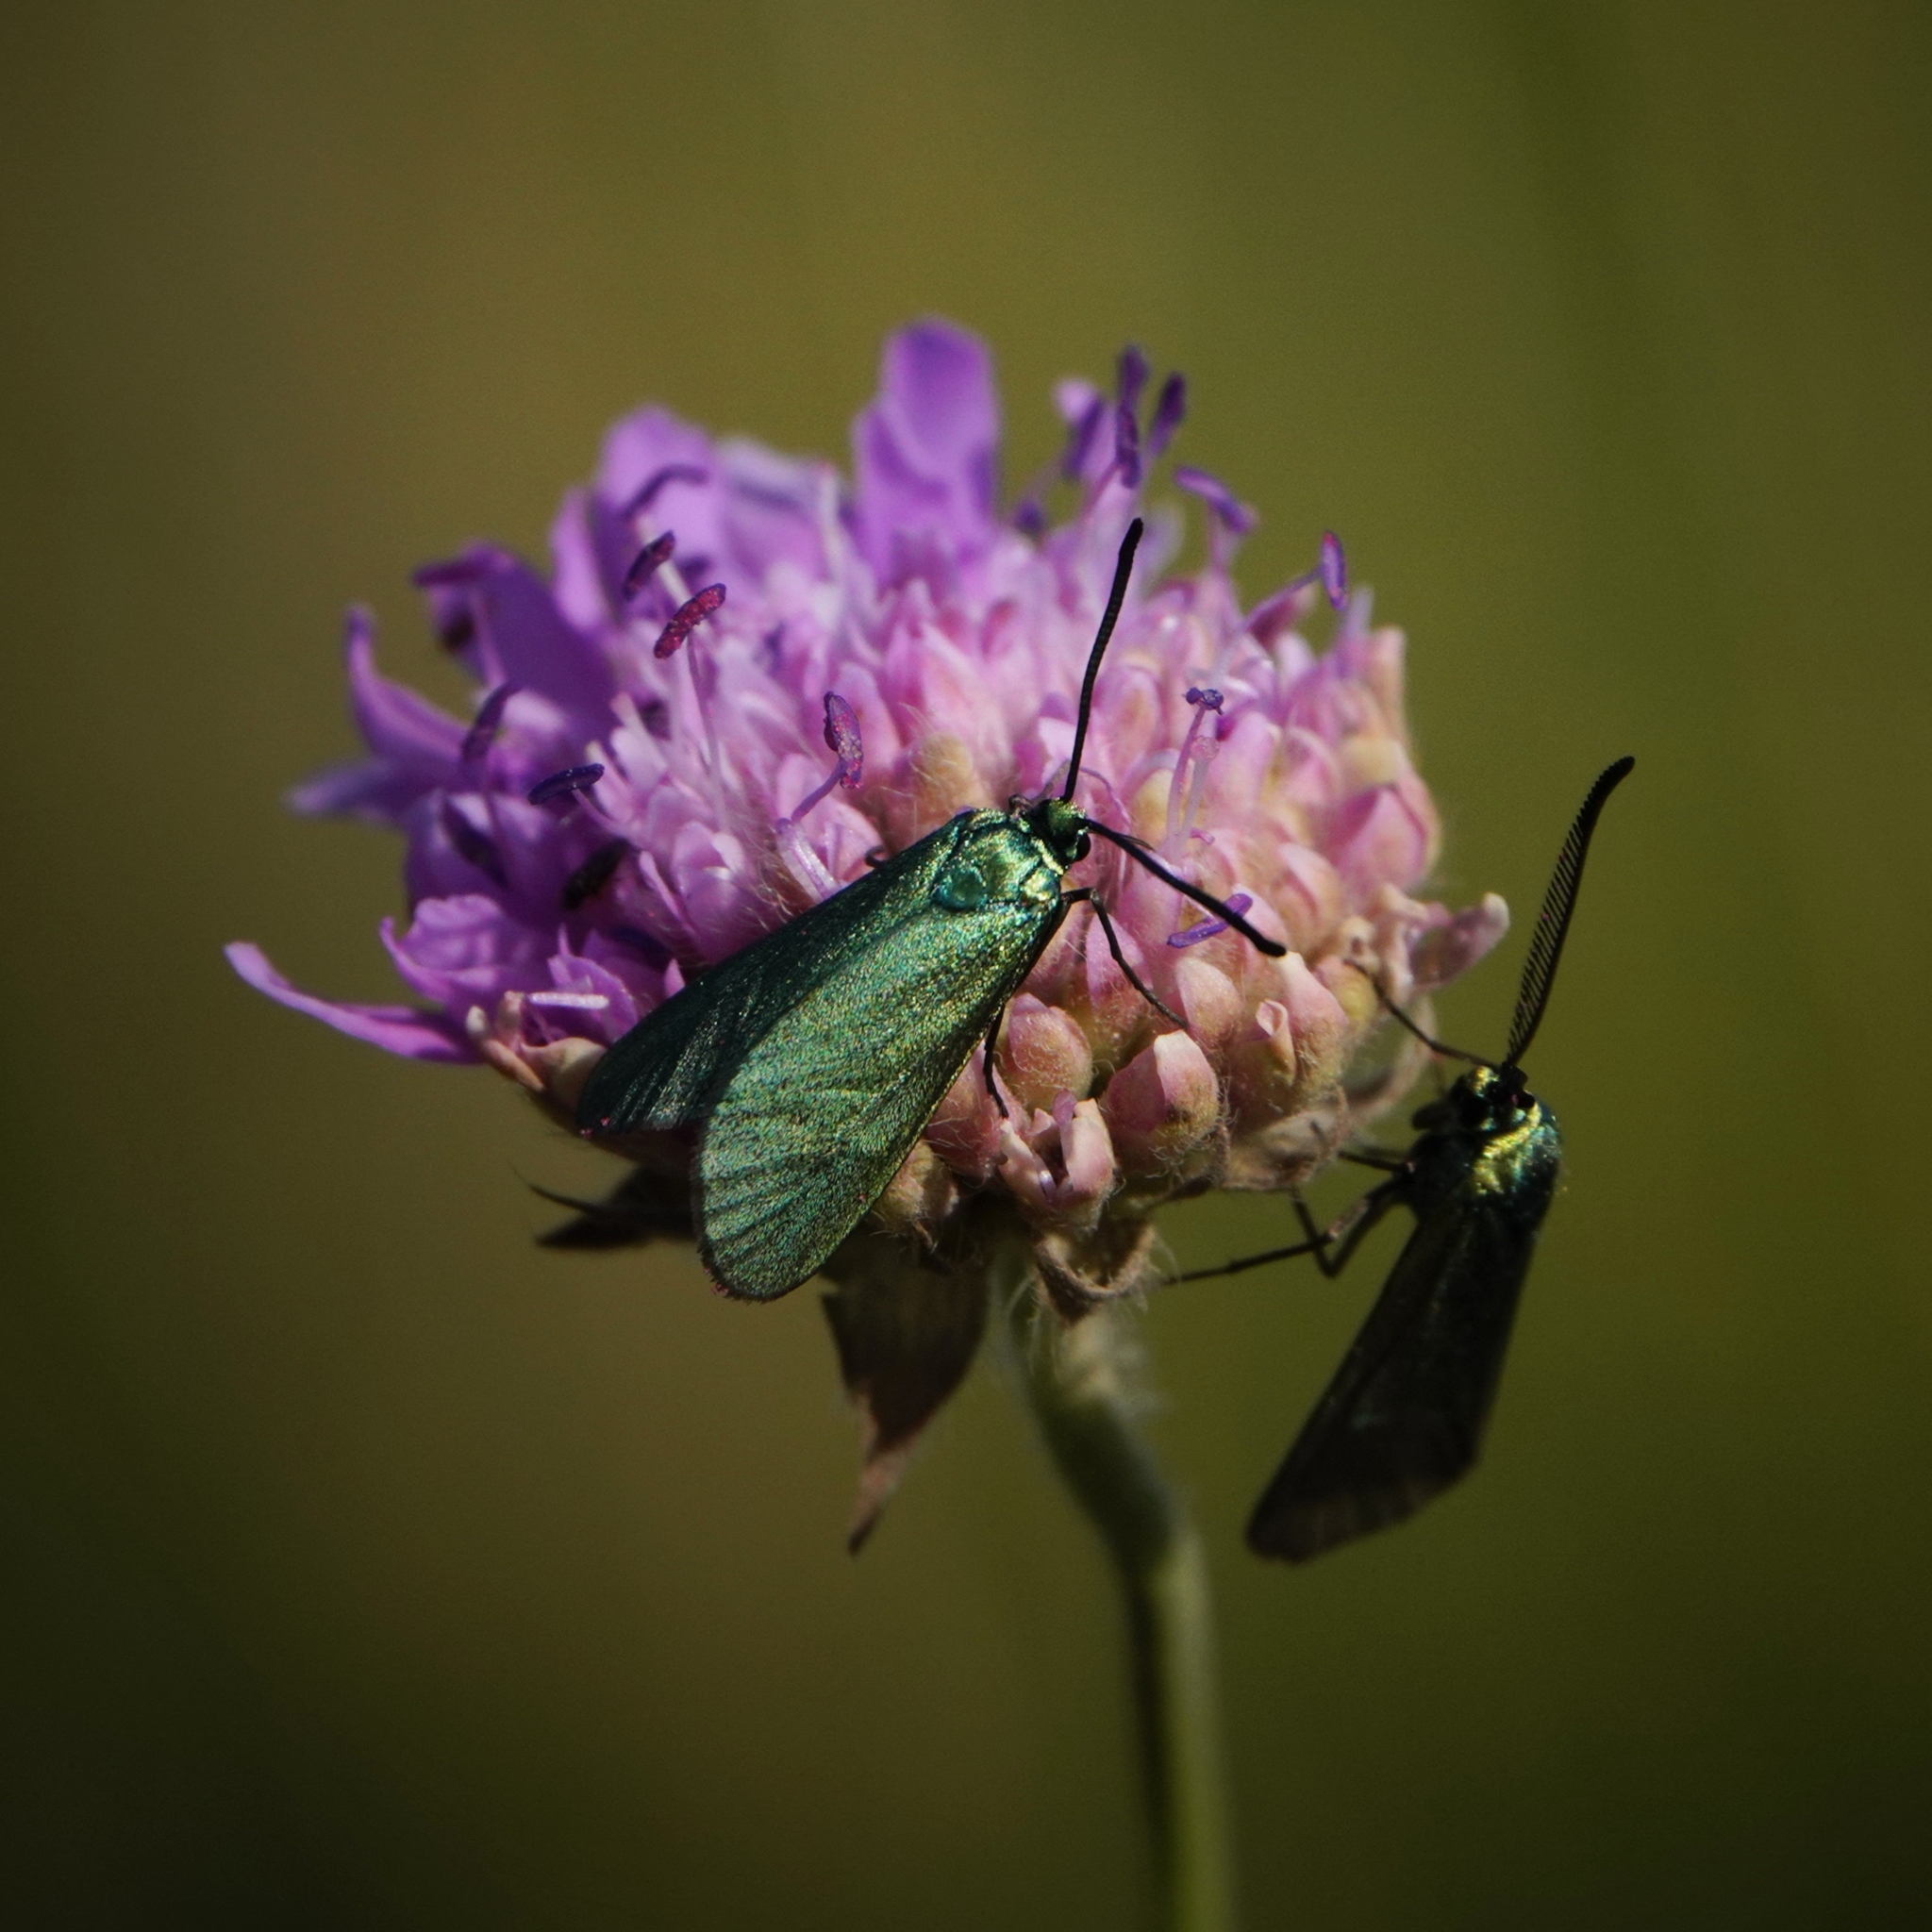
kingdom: Animalia
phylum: Arthropoda
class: Insecta
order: Lepidoptera
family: Zygaenidae
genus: Adscita
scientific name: Adscita statices
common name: Forester
